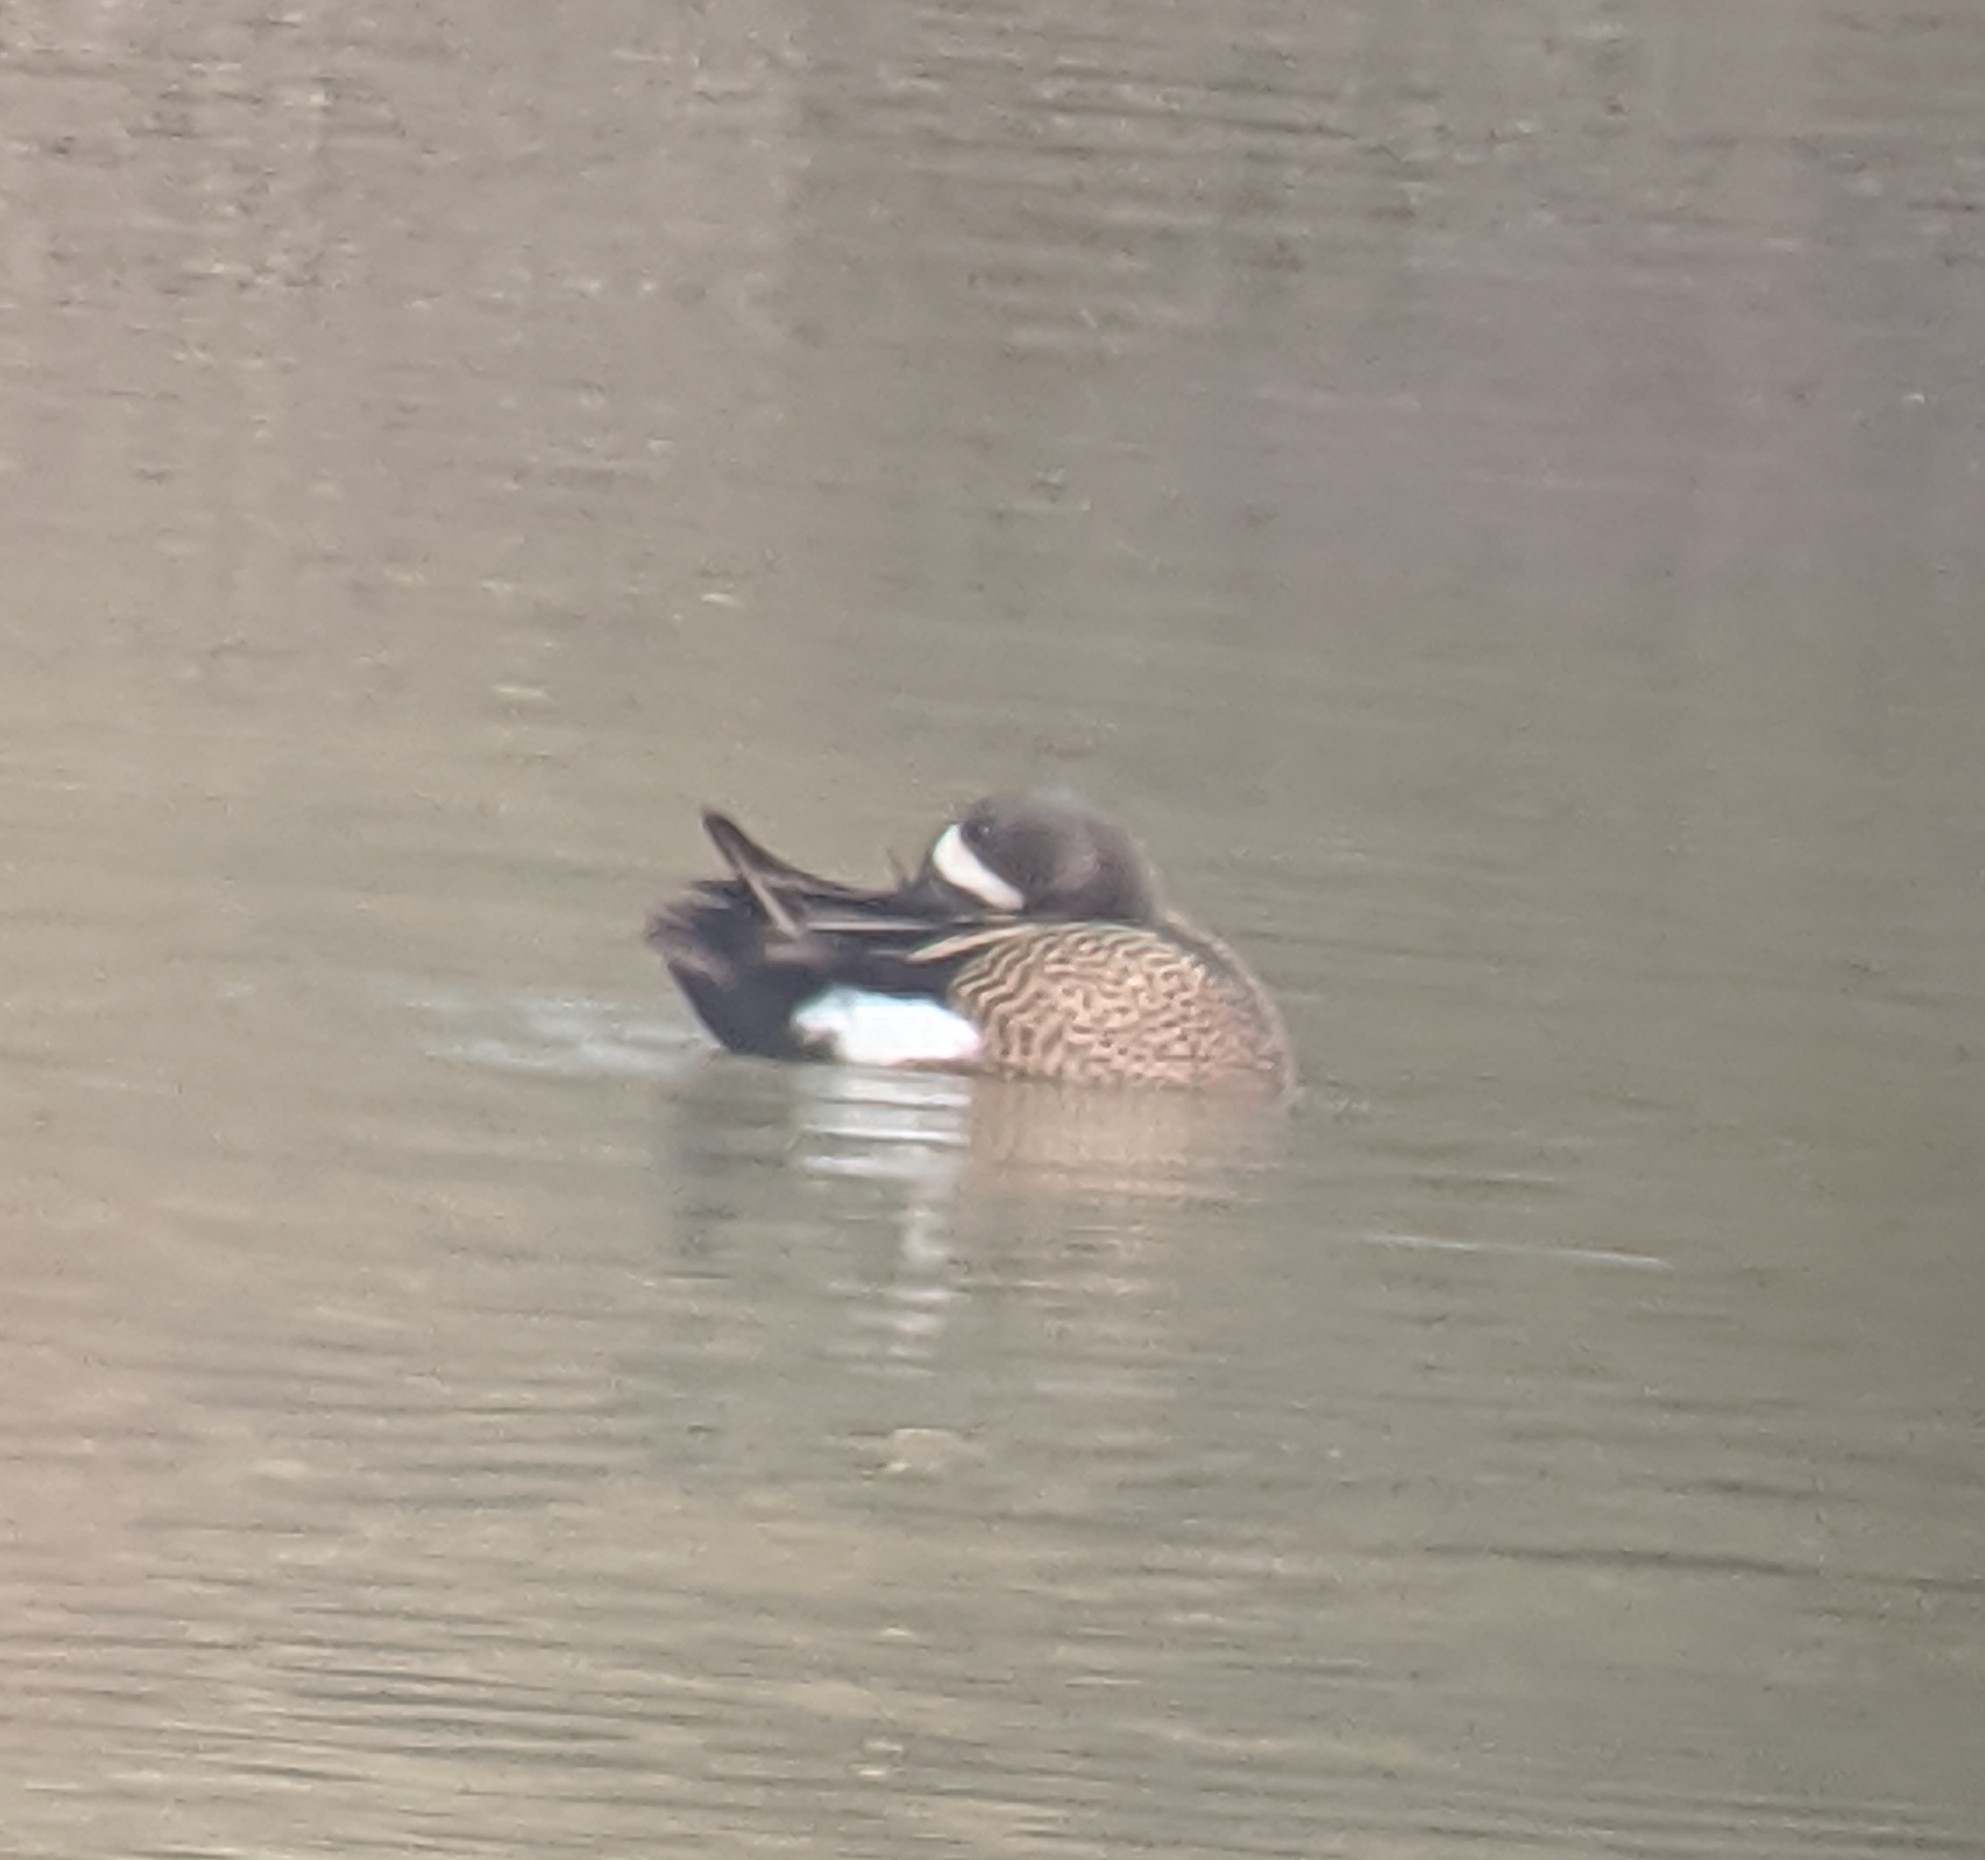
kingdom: Animalia
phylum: Chordata
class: Aves
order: Anseriformes
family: Anatidae
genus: Spatula
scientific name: Spatula discors
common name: Blue-winged teal
